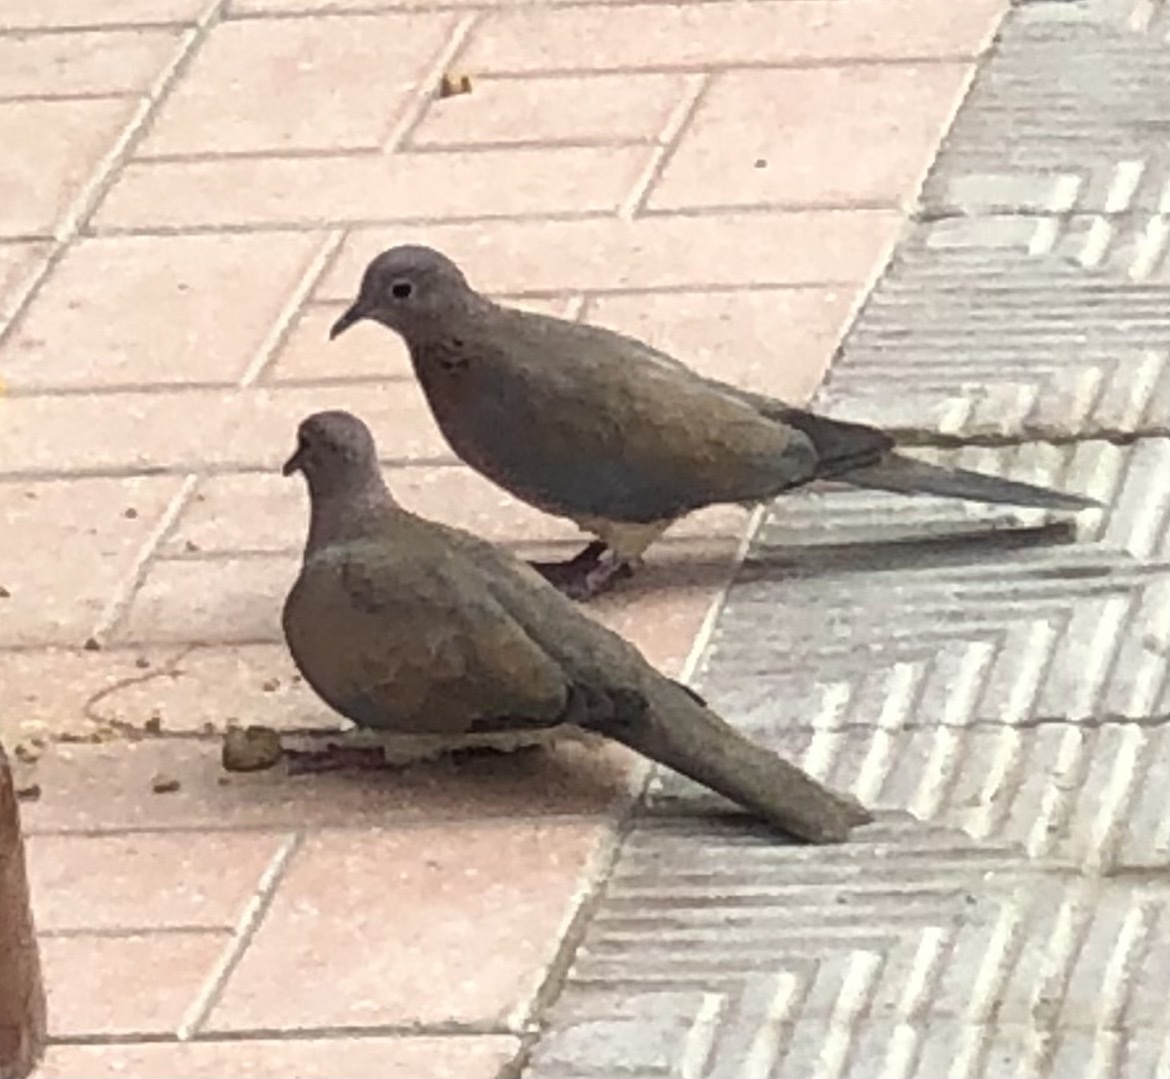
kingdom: Animalia
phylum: Chordata
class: Aves
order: Columbiformes
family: Columbidae
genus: Spilopelia
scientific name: Spilopelia senegalensis
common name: Laughing dove
